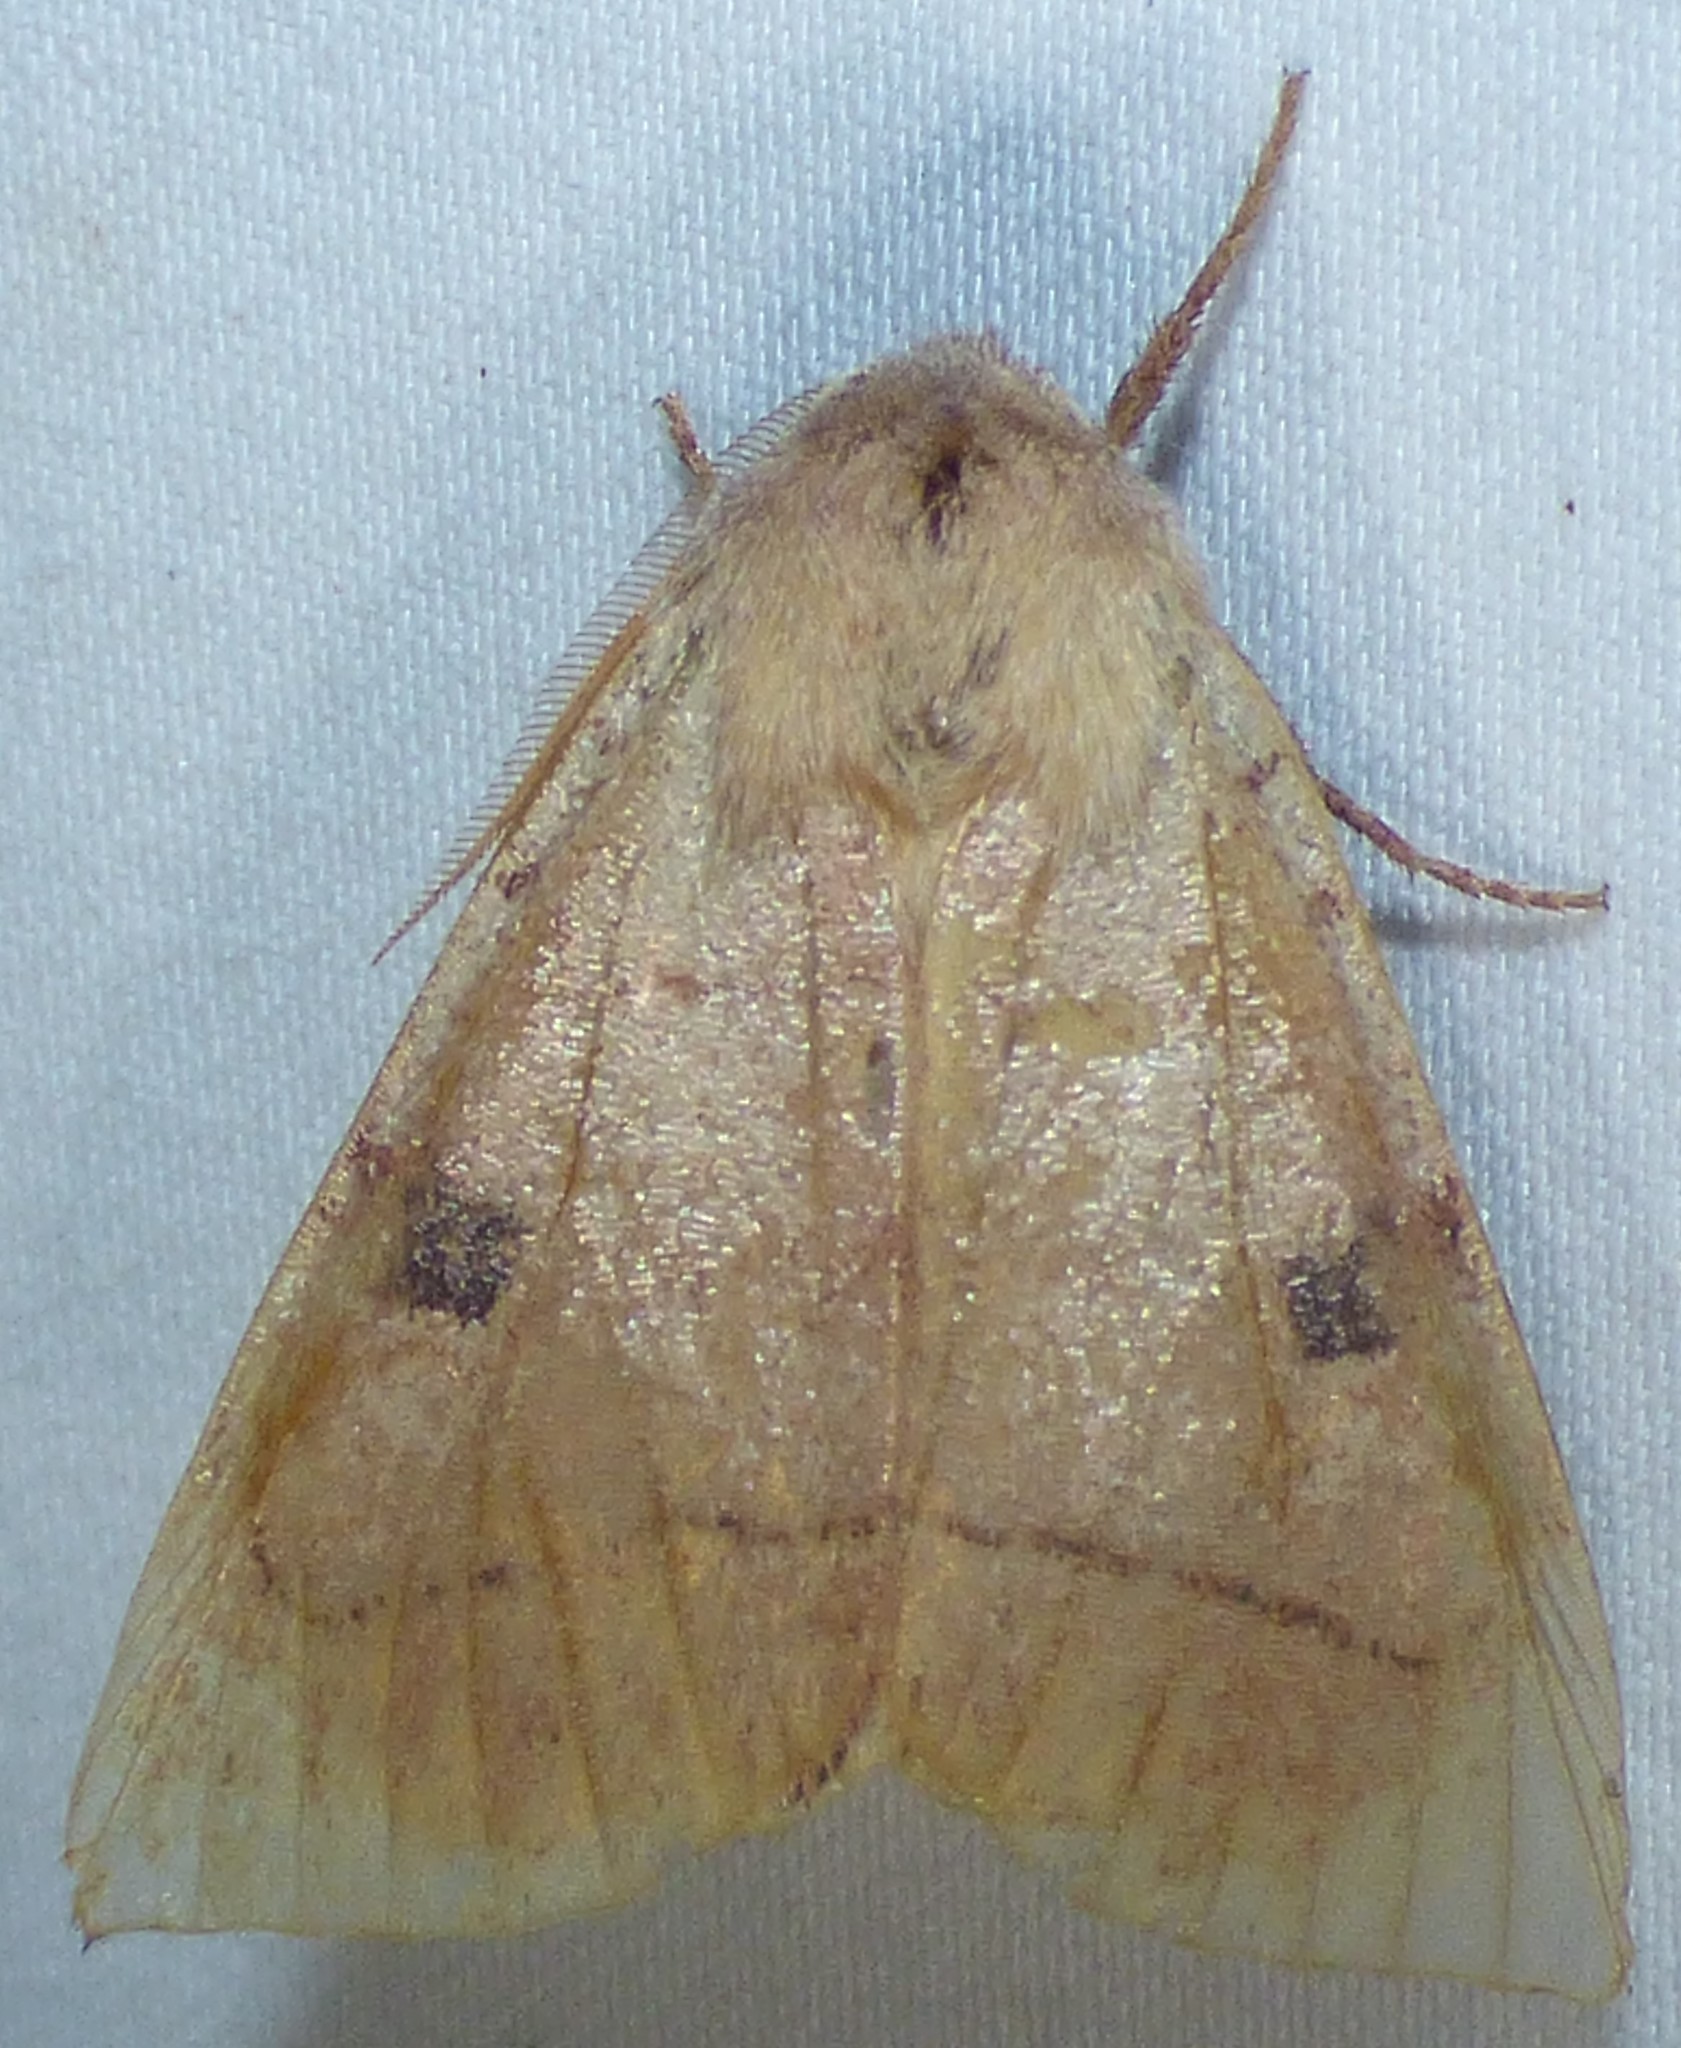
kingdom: Animalia
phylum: Arthropoda
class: Insecta
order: Lepidoptera
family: Noctuidae
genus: Choephora
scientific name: Choephora fungorum
